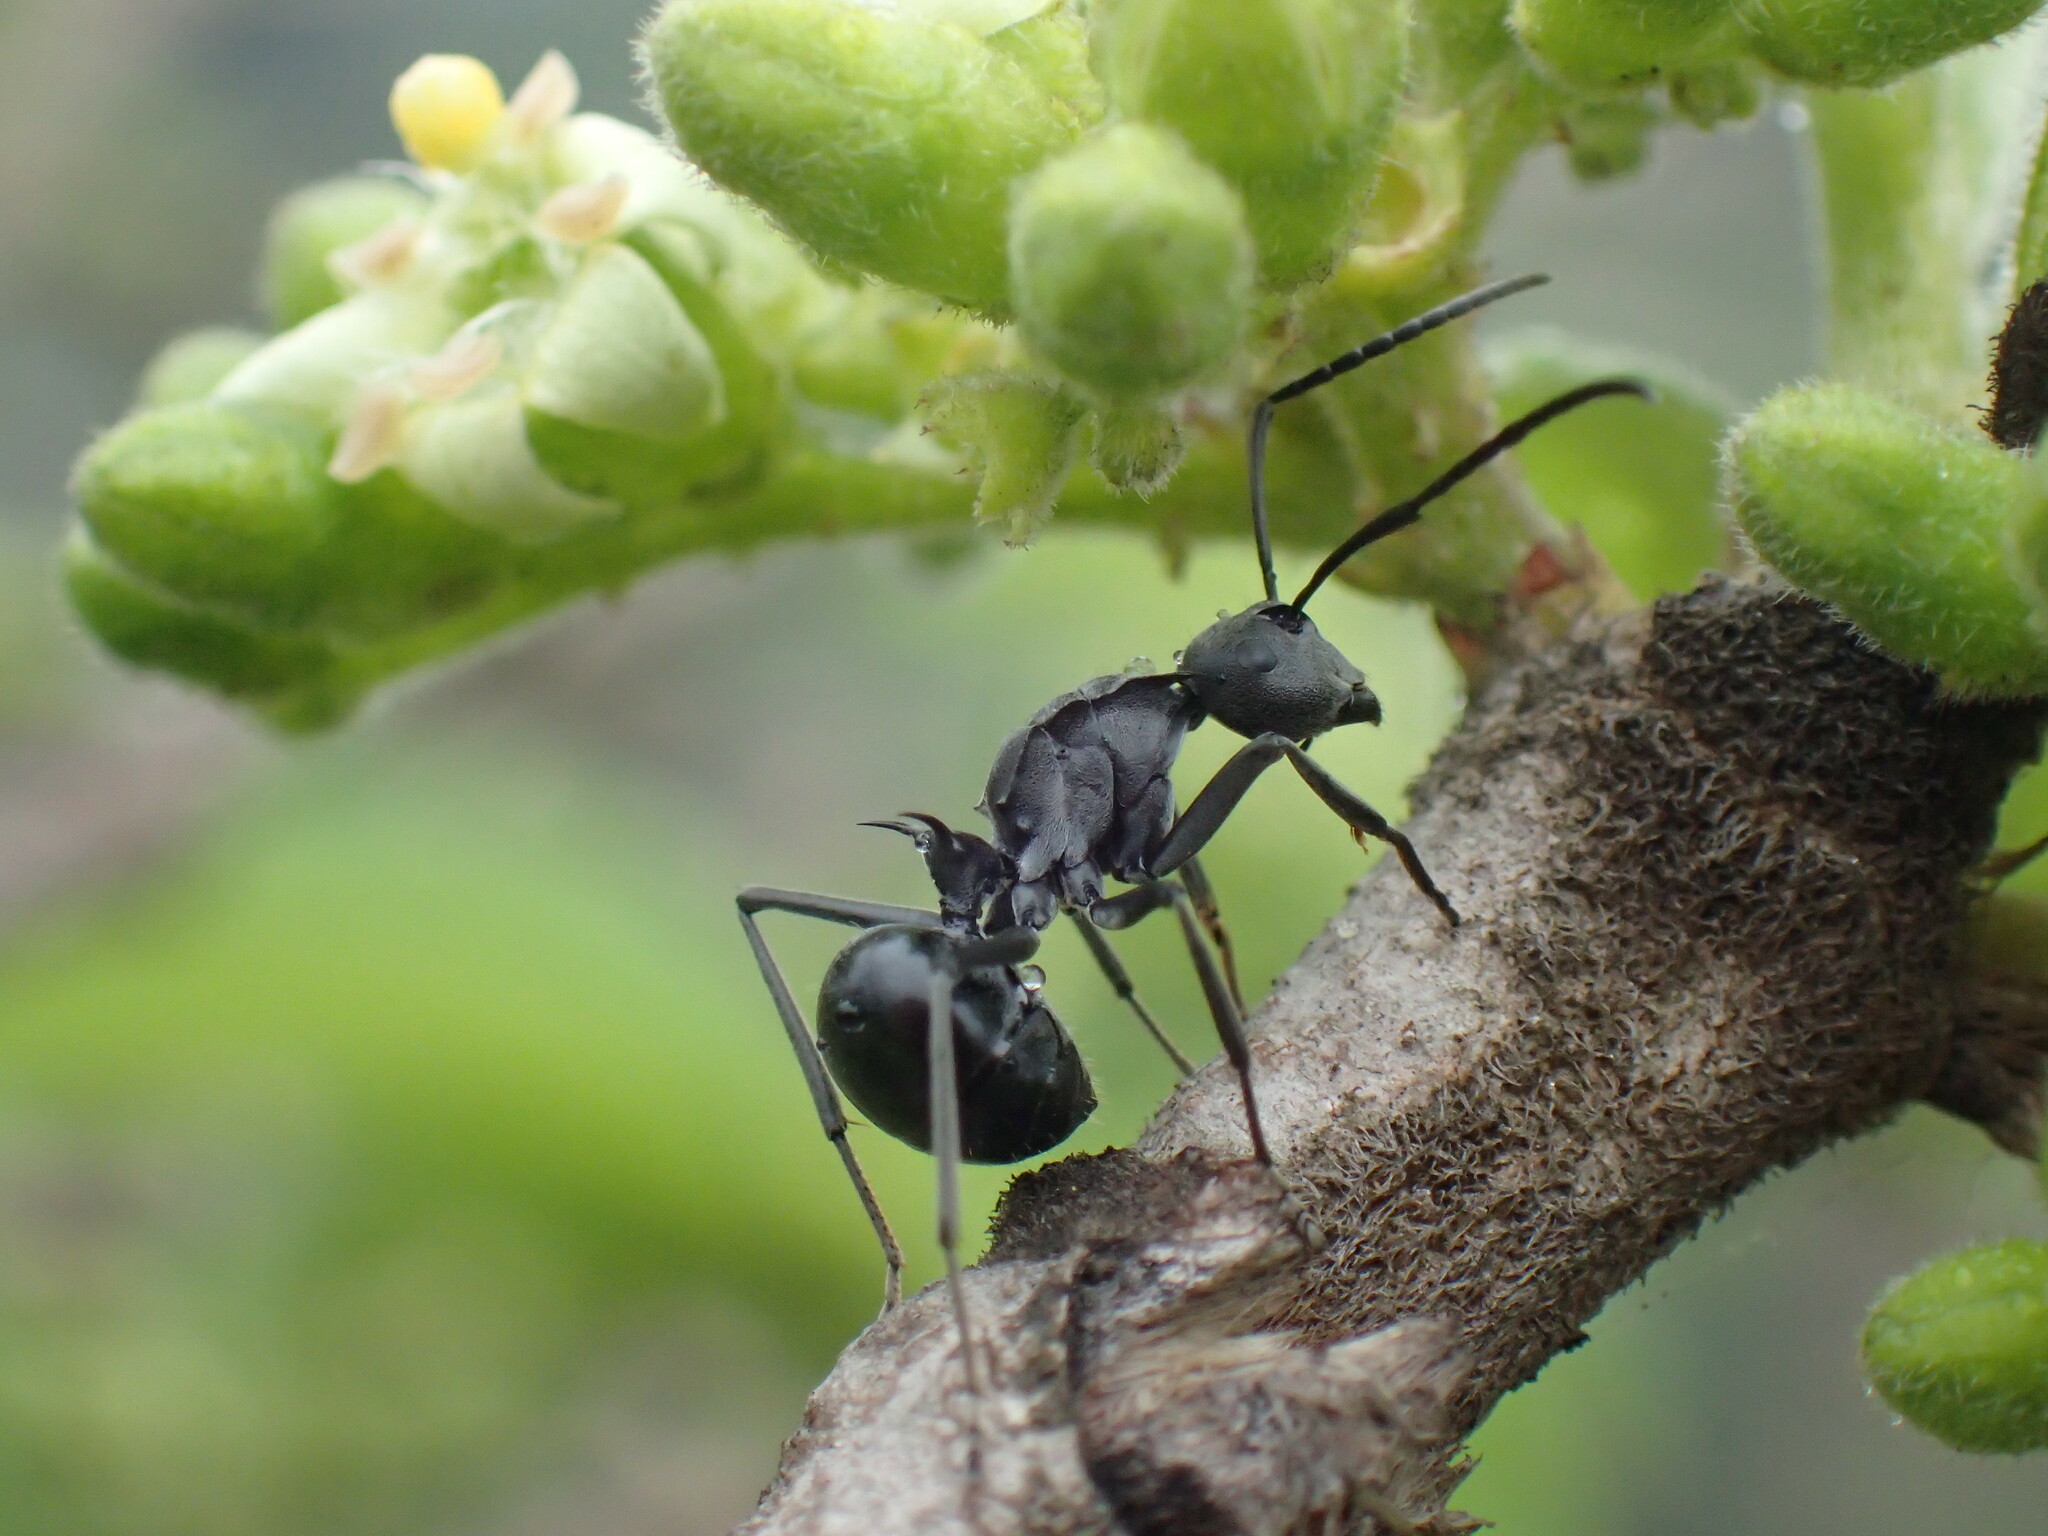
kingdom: Animalia
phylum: Arthropoda
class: Insecta
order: Hymenoptera
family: Formicidae
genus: Polyrhachis
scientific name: Polyrhachis gagates
